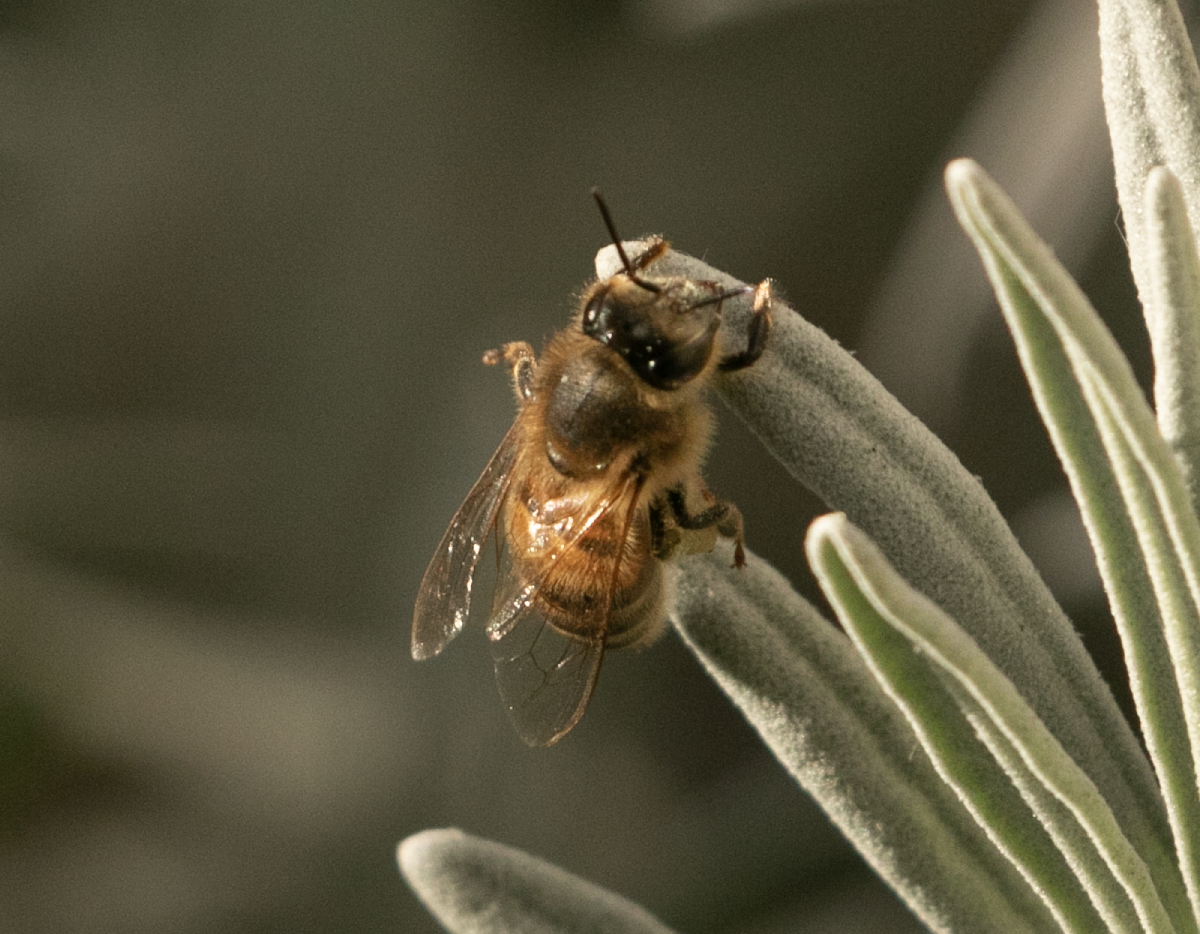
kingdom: Animalia
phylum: Arthropoda
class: Insecta
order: Hymenoptera
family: Apidae
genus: Apis
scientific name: Apis mellifera
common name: Honey bee
